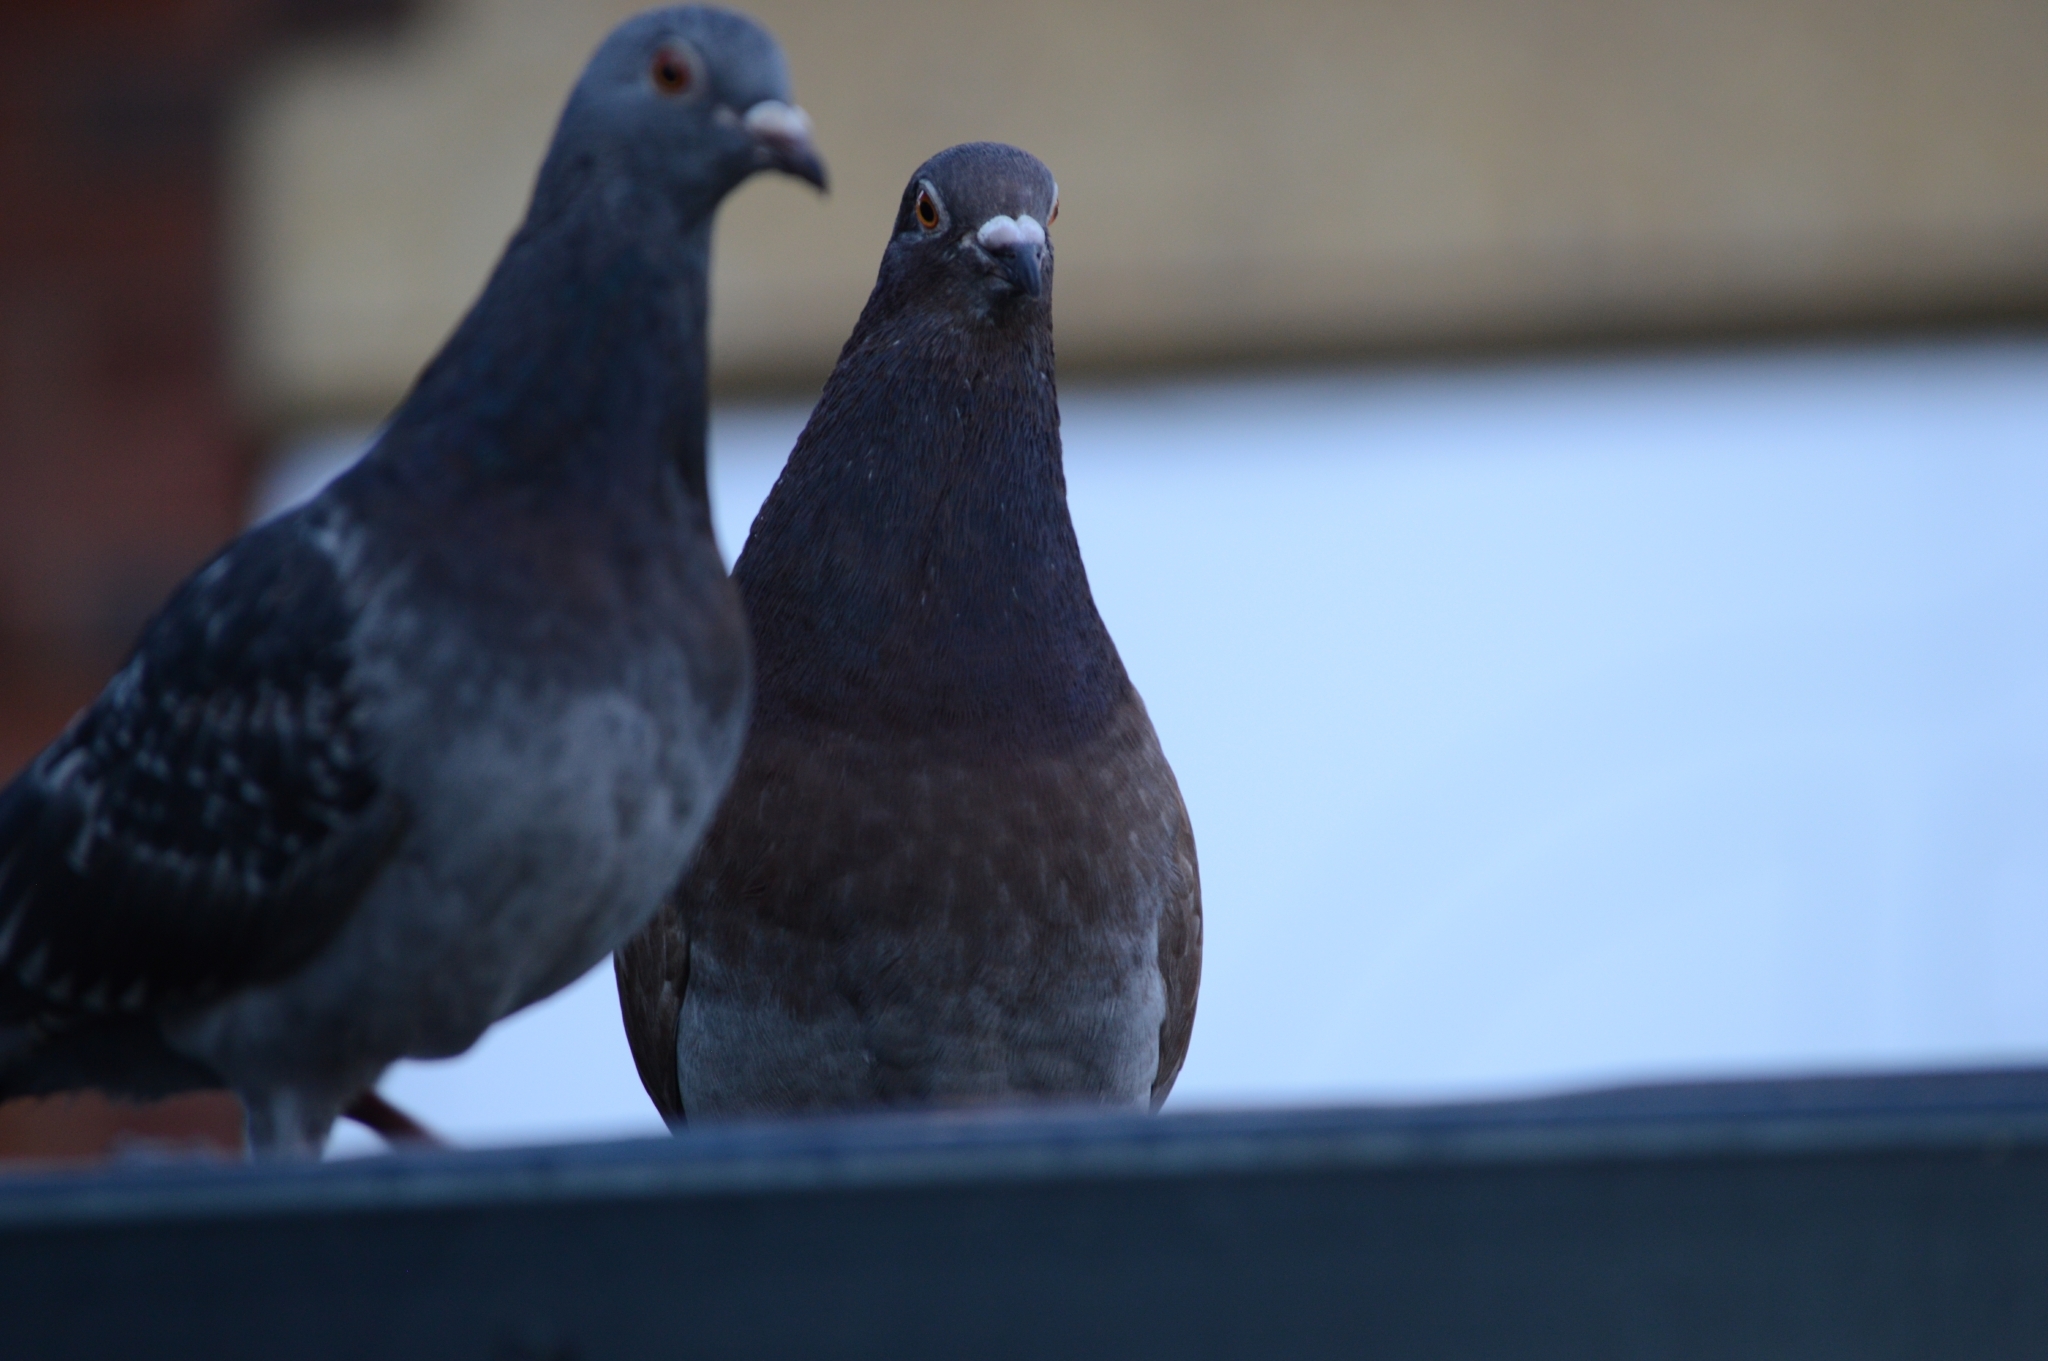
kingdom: Animalia
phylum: Chordata
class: Aves
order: Columbiformes
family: Columbidae
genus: Columba
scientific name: Columba livia
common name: Rock pigeon
